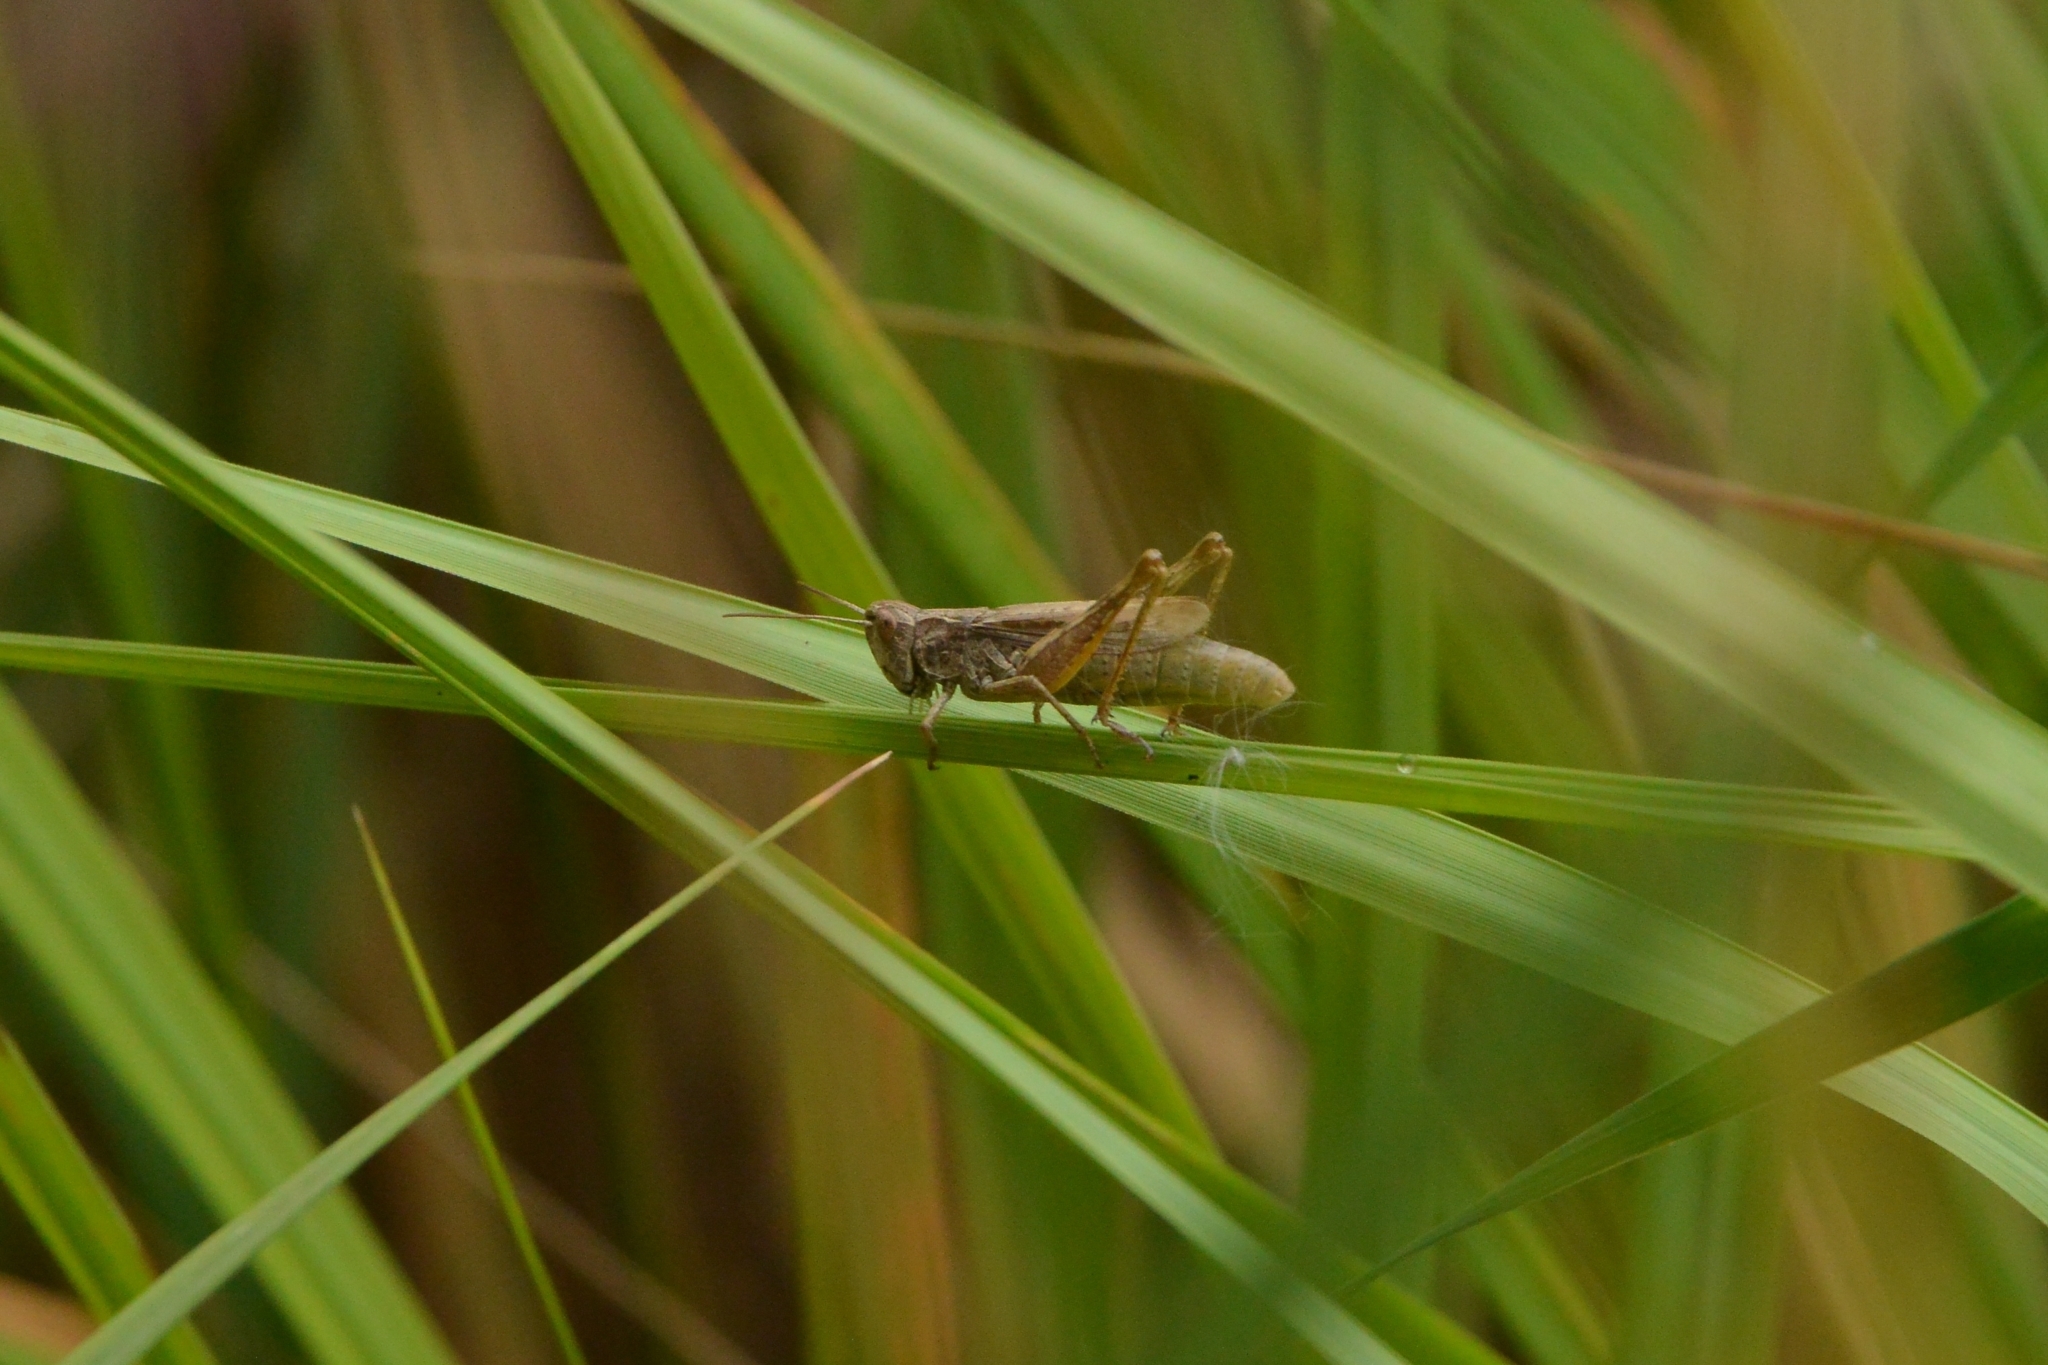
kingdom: Animalia
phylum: Arthropoda
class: Insecta
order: Orthoptera
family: Acrididae
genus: Chorthippus
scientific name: Chorthippus apricarius
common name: Upland field grasshopper
